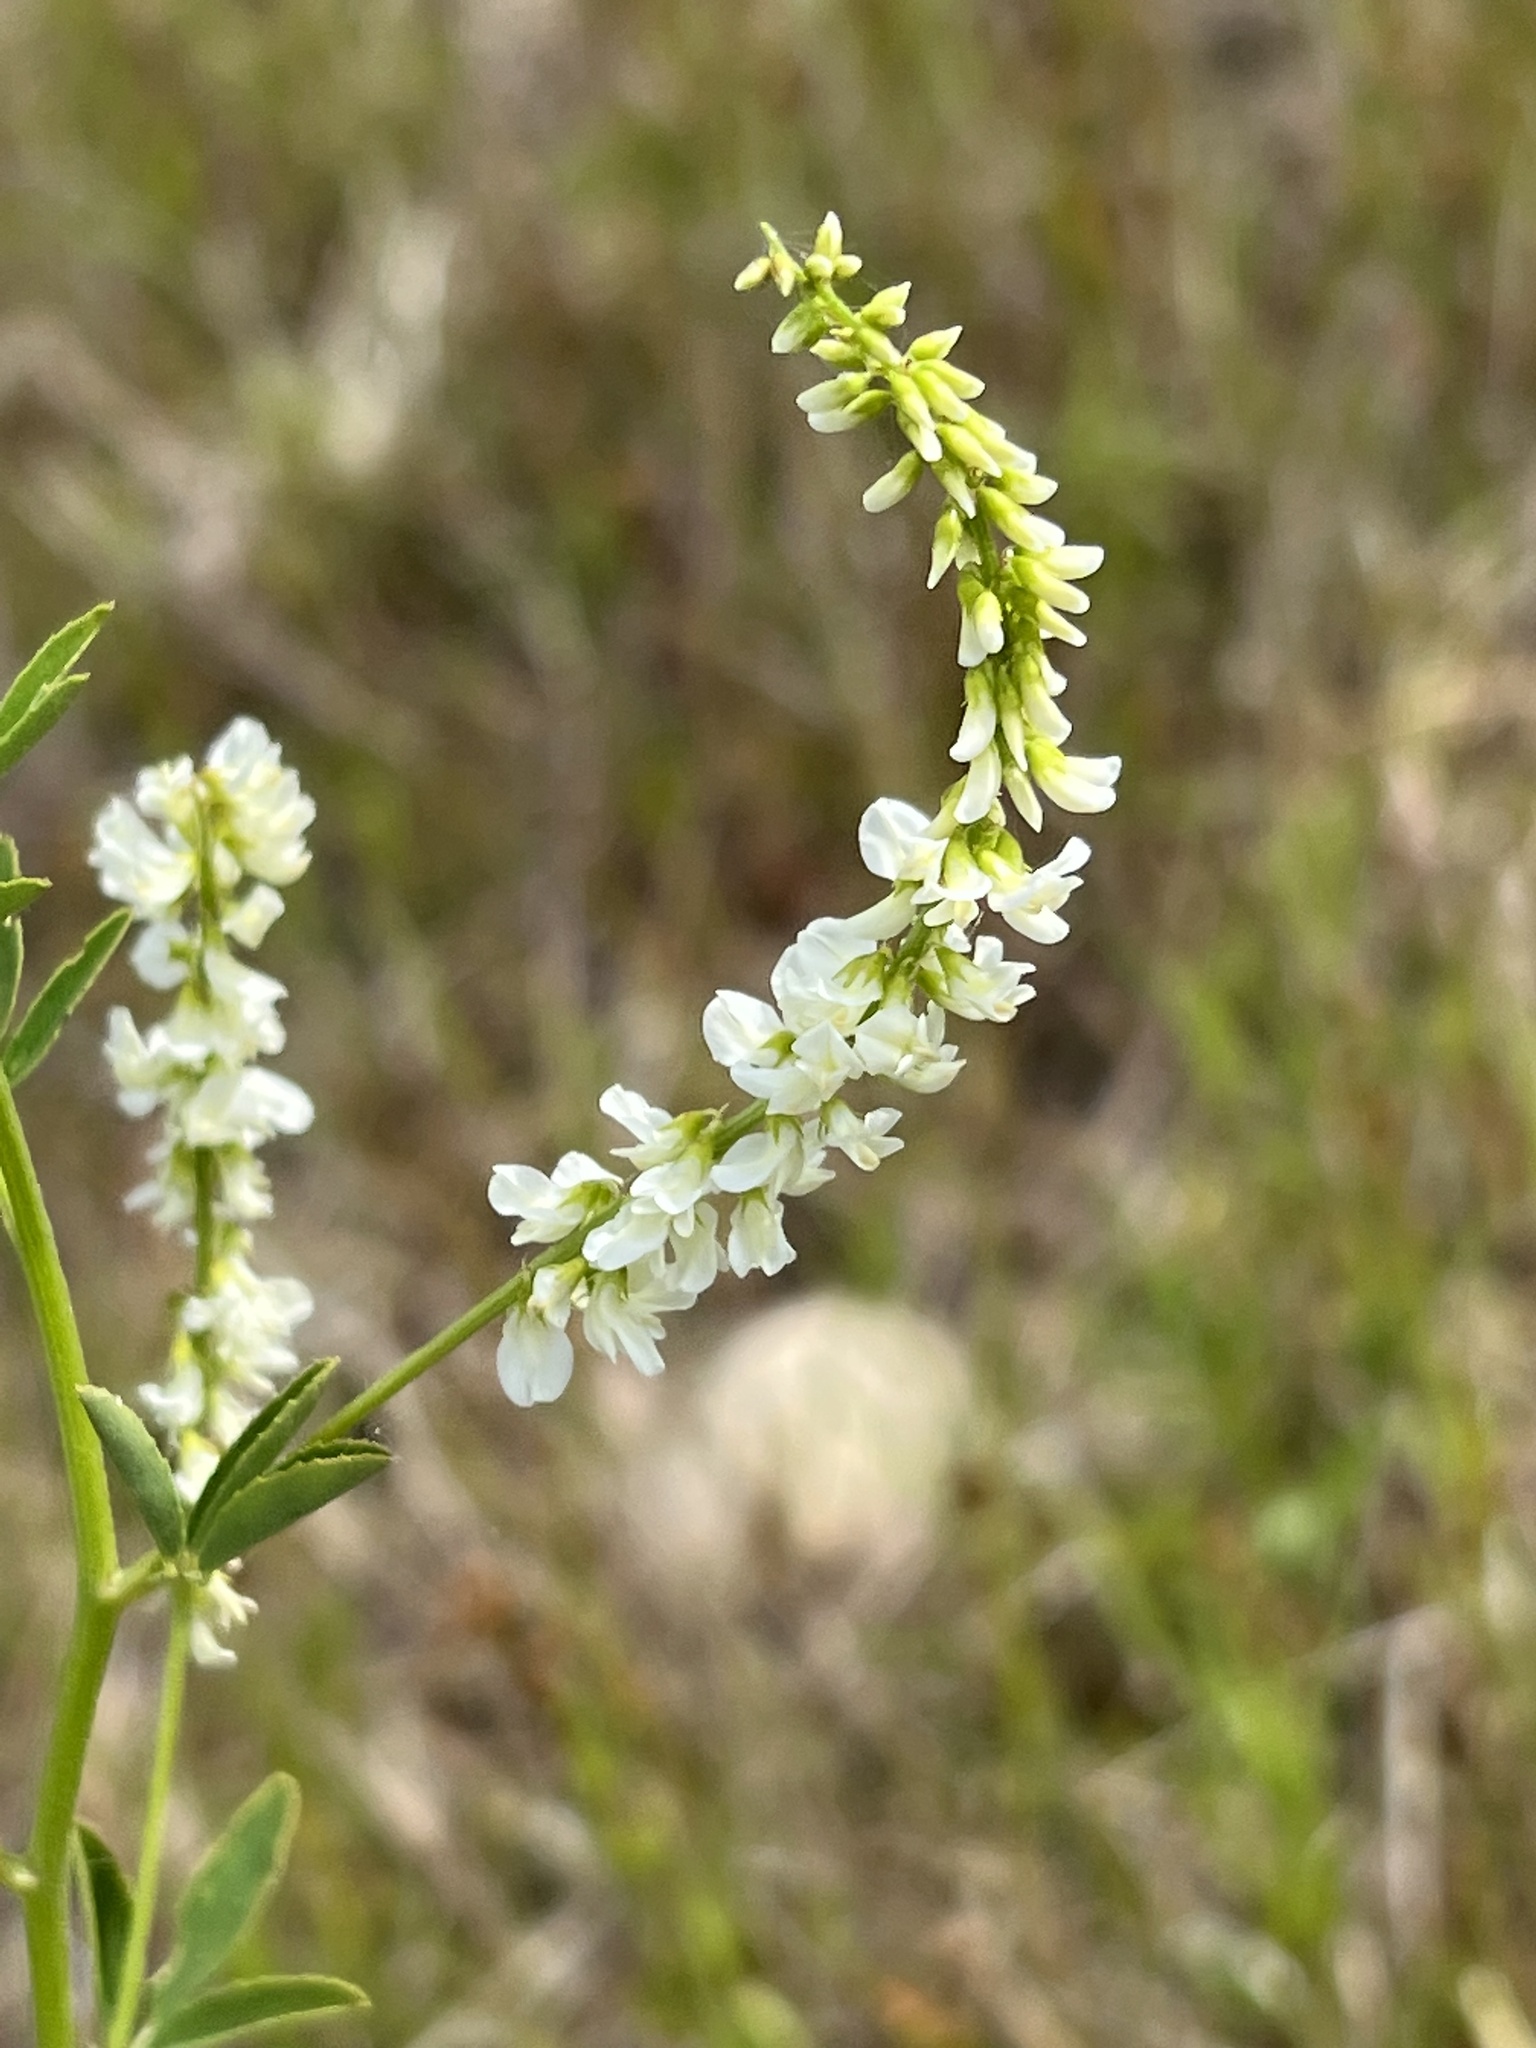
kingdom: Plantae
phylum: Tracheophyta
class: Magnoliopsida
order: Fabales
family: Fabaceae
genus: Melilotus
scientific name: Melilotus albus
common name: White melilot
